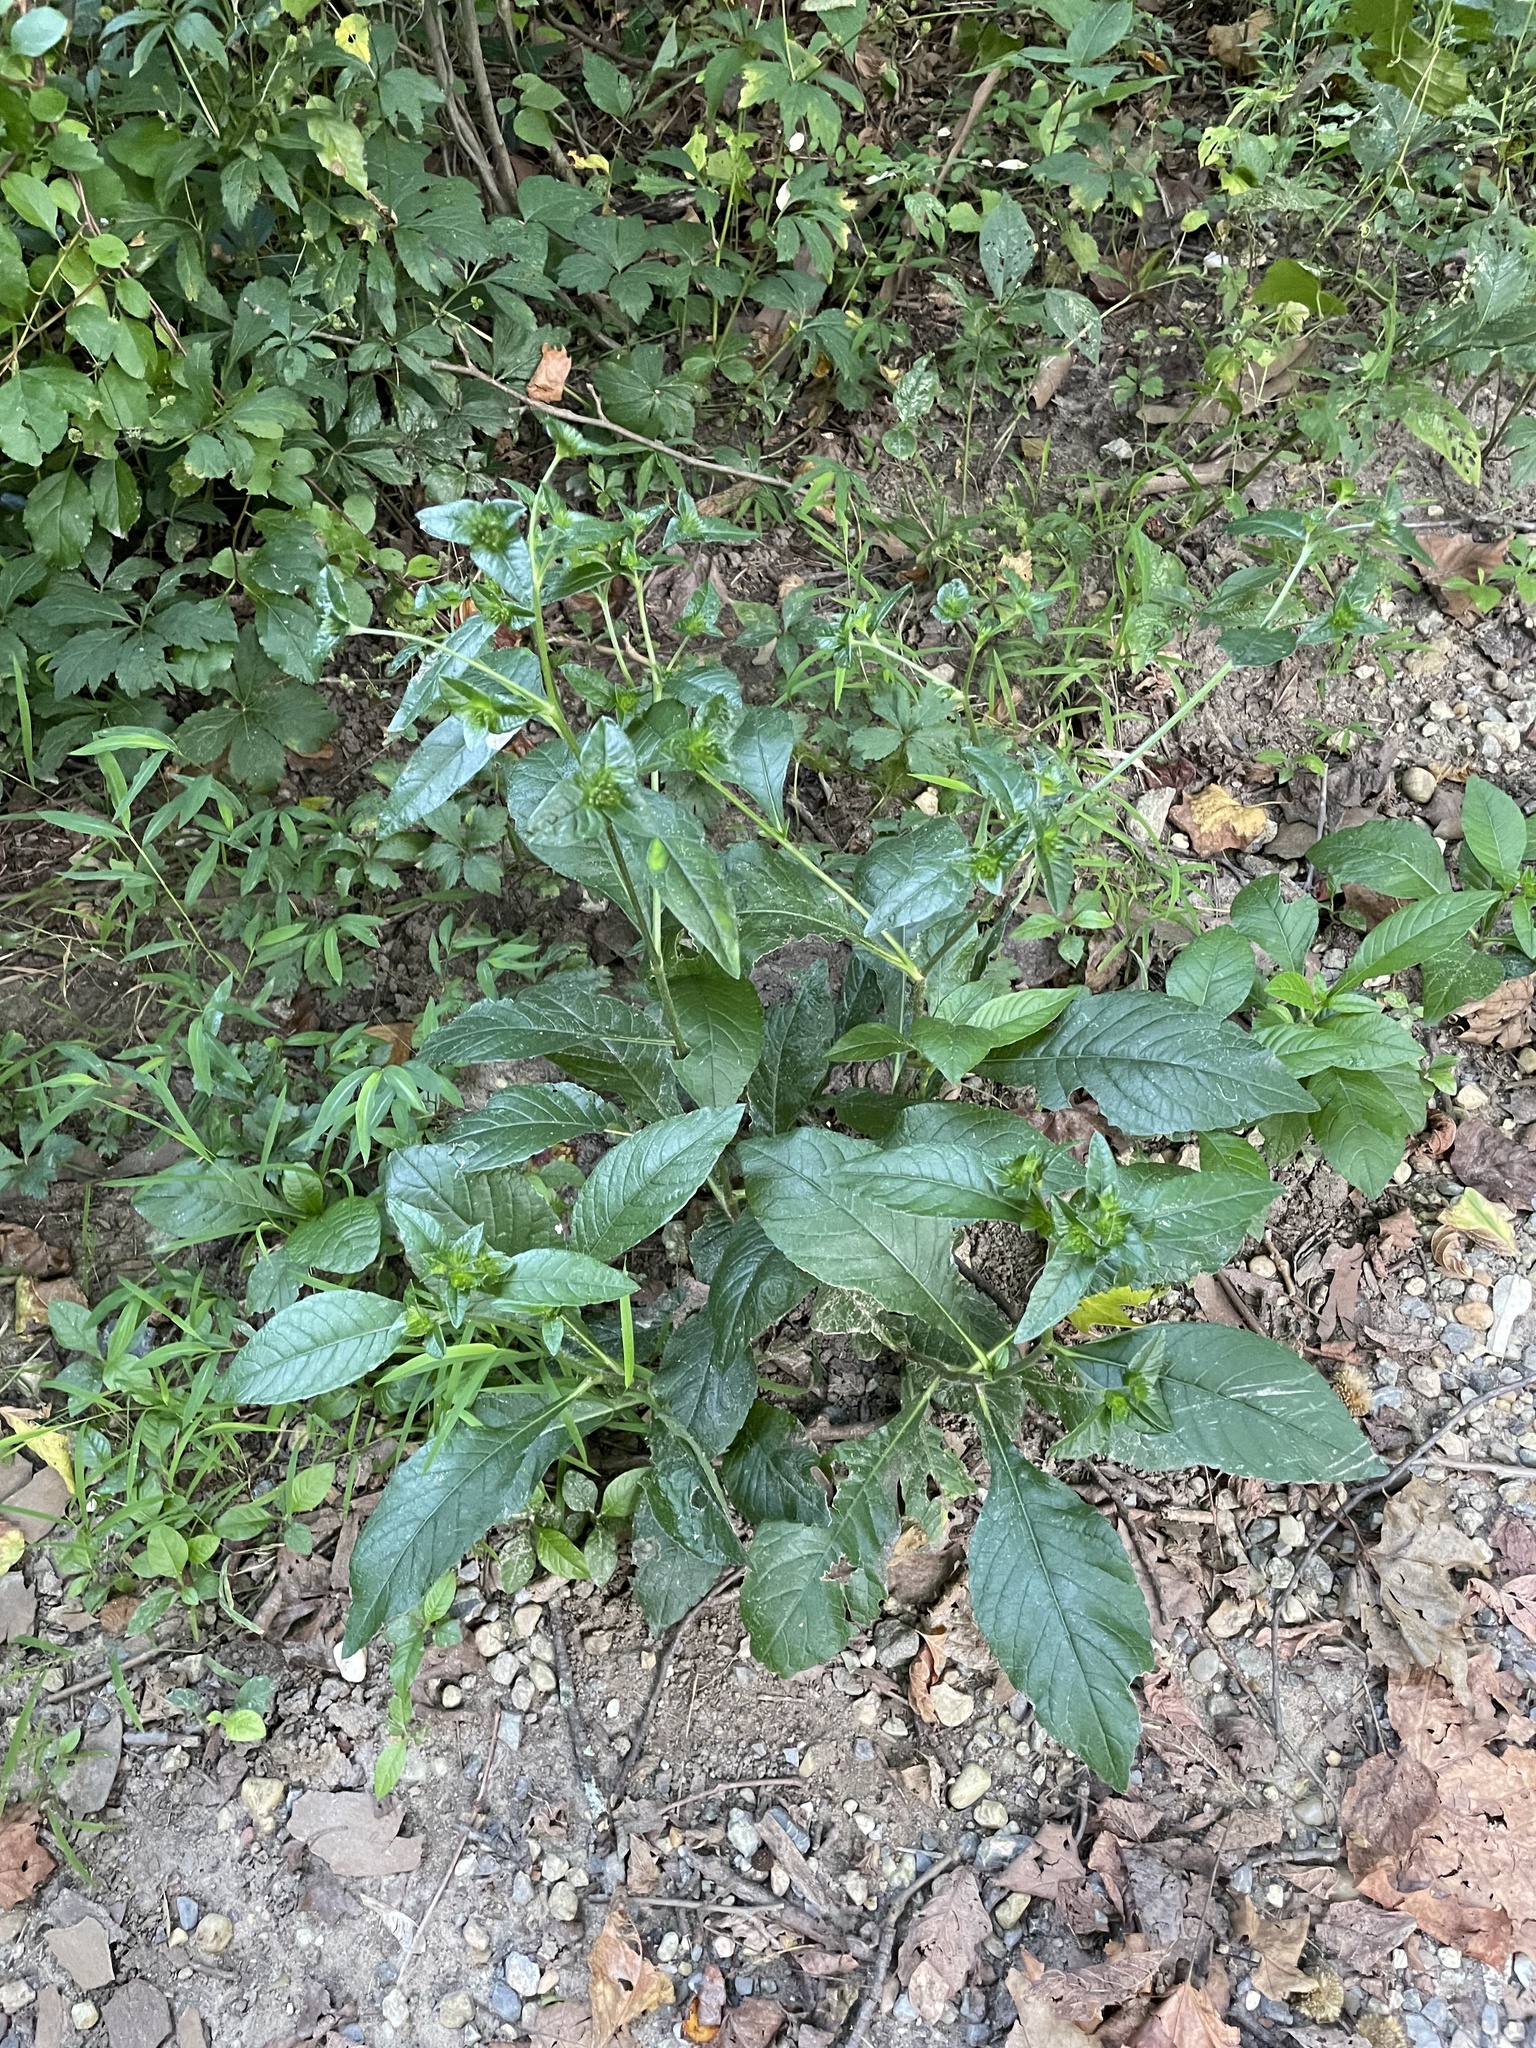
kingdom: Plantae
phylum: Tracheophyta
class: Magnoliopsida
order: Asterales
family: Asteraceae
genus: Elephantopus
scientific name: Elephantopus carolinianus
